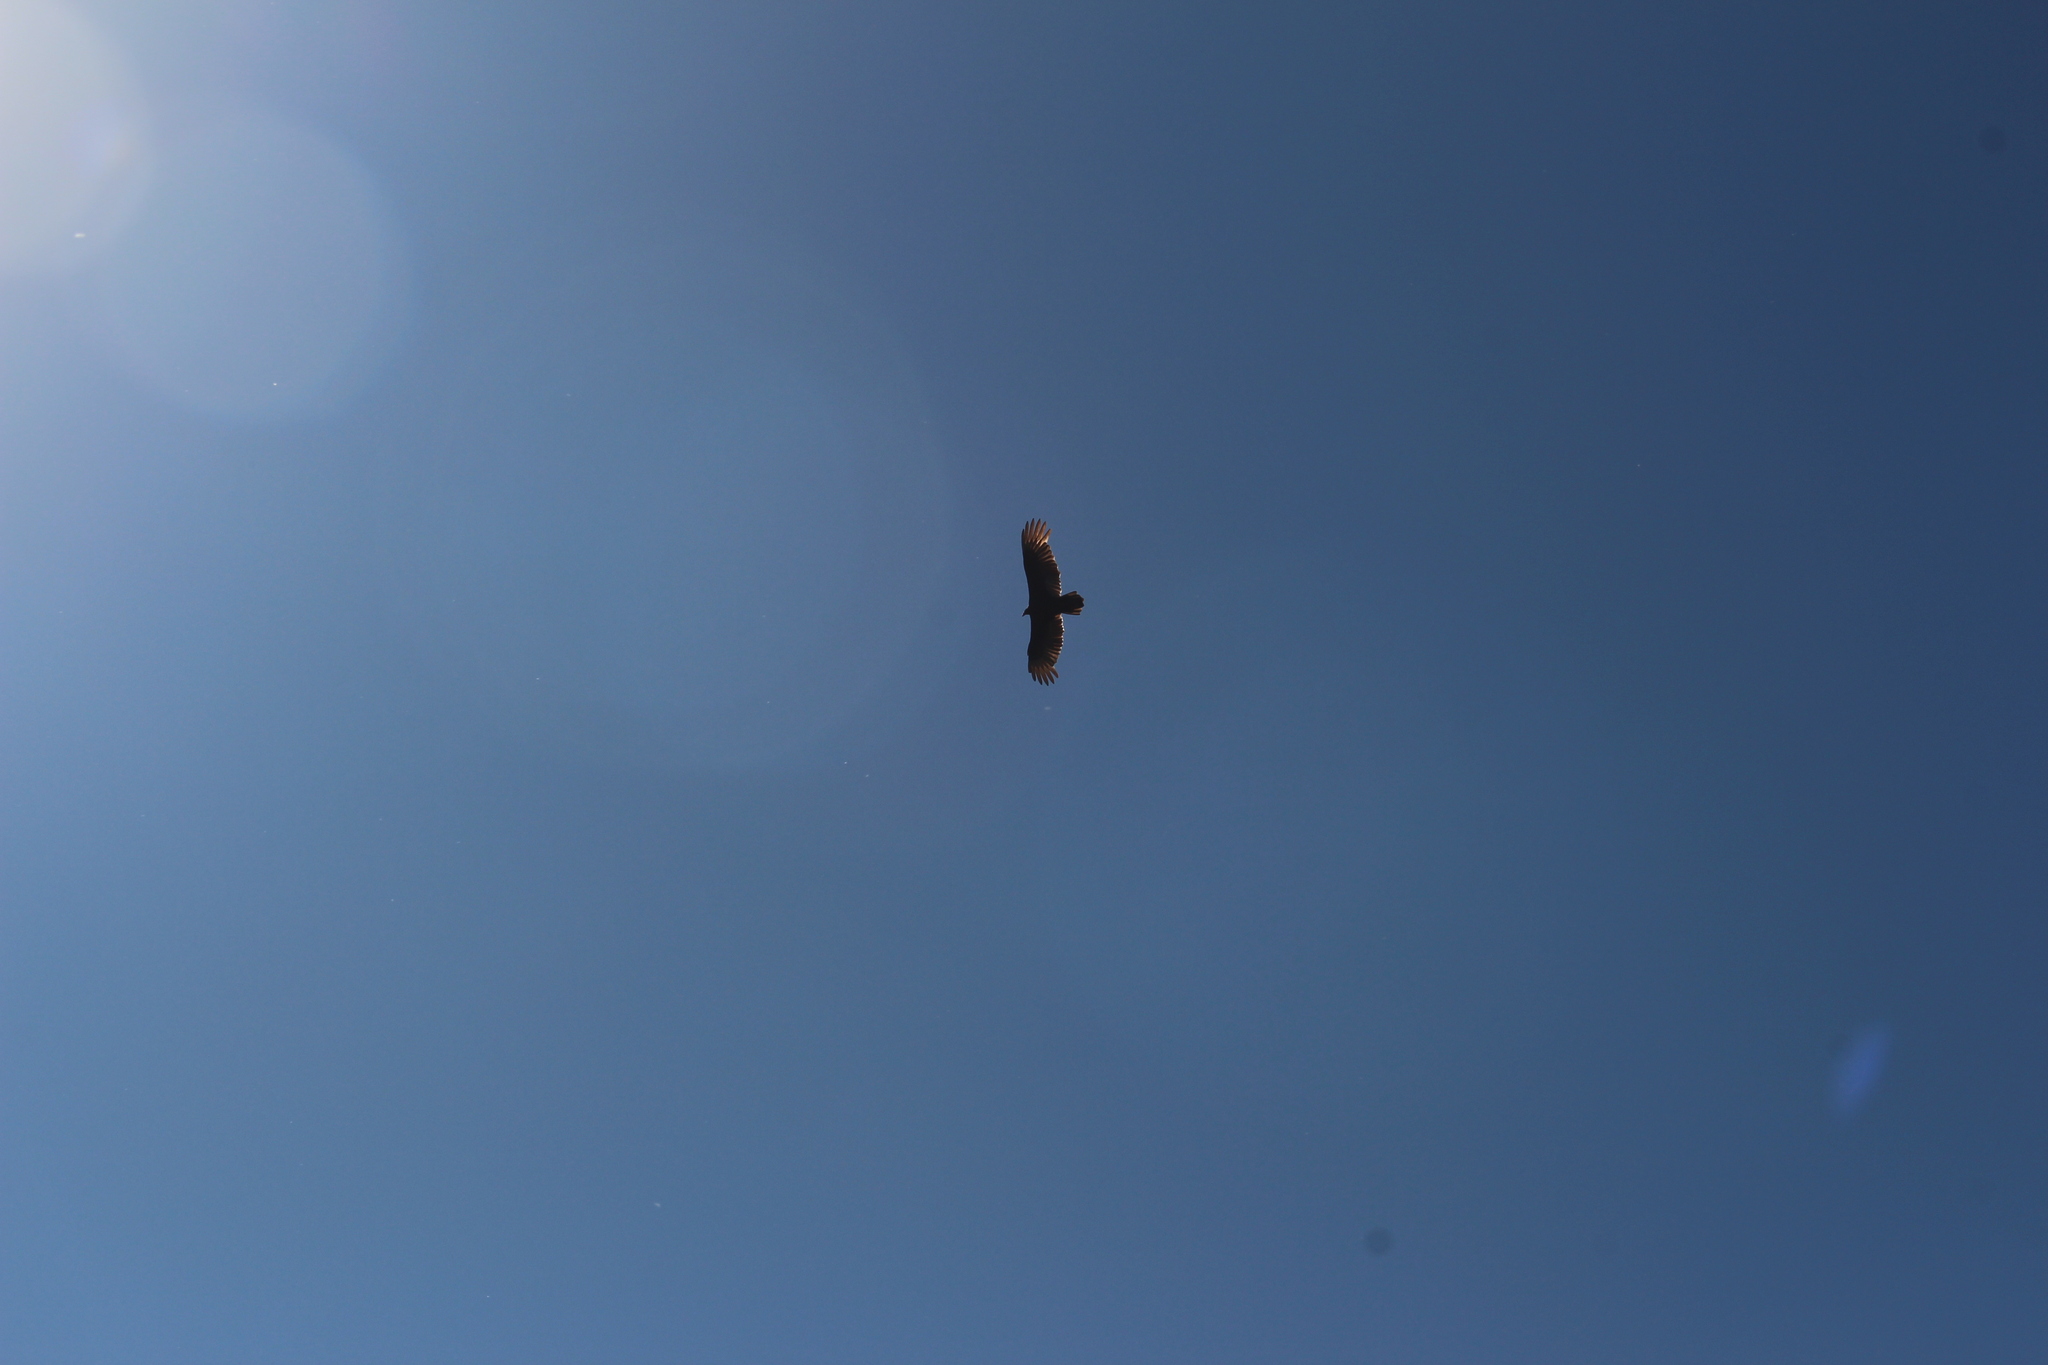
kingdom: Animalia
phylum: Chordata
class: Aves
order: Accipitriformes
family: Cathartidae
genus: Cathartes
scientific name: Cathartes aura
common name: Turkey vulture
